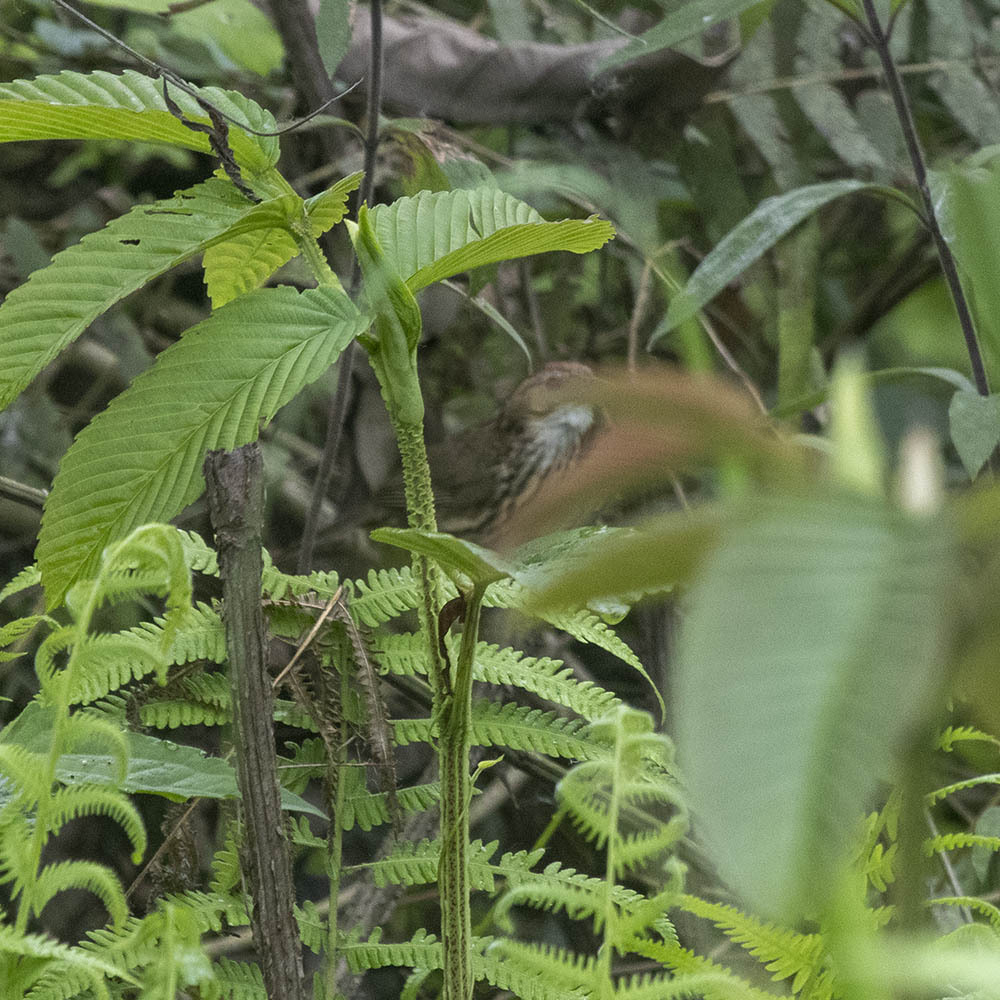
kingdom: Animalia
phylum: Chordata
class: Aves
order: Passeriformes
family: Pellorneidae
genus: Pellorneum
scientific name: Pellorneum ruficeps
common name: Puff-throated babbler
